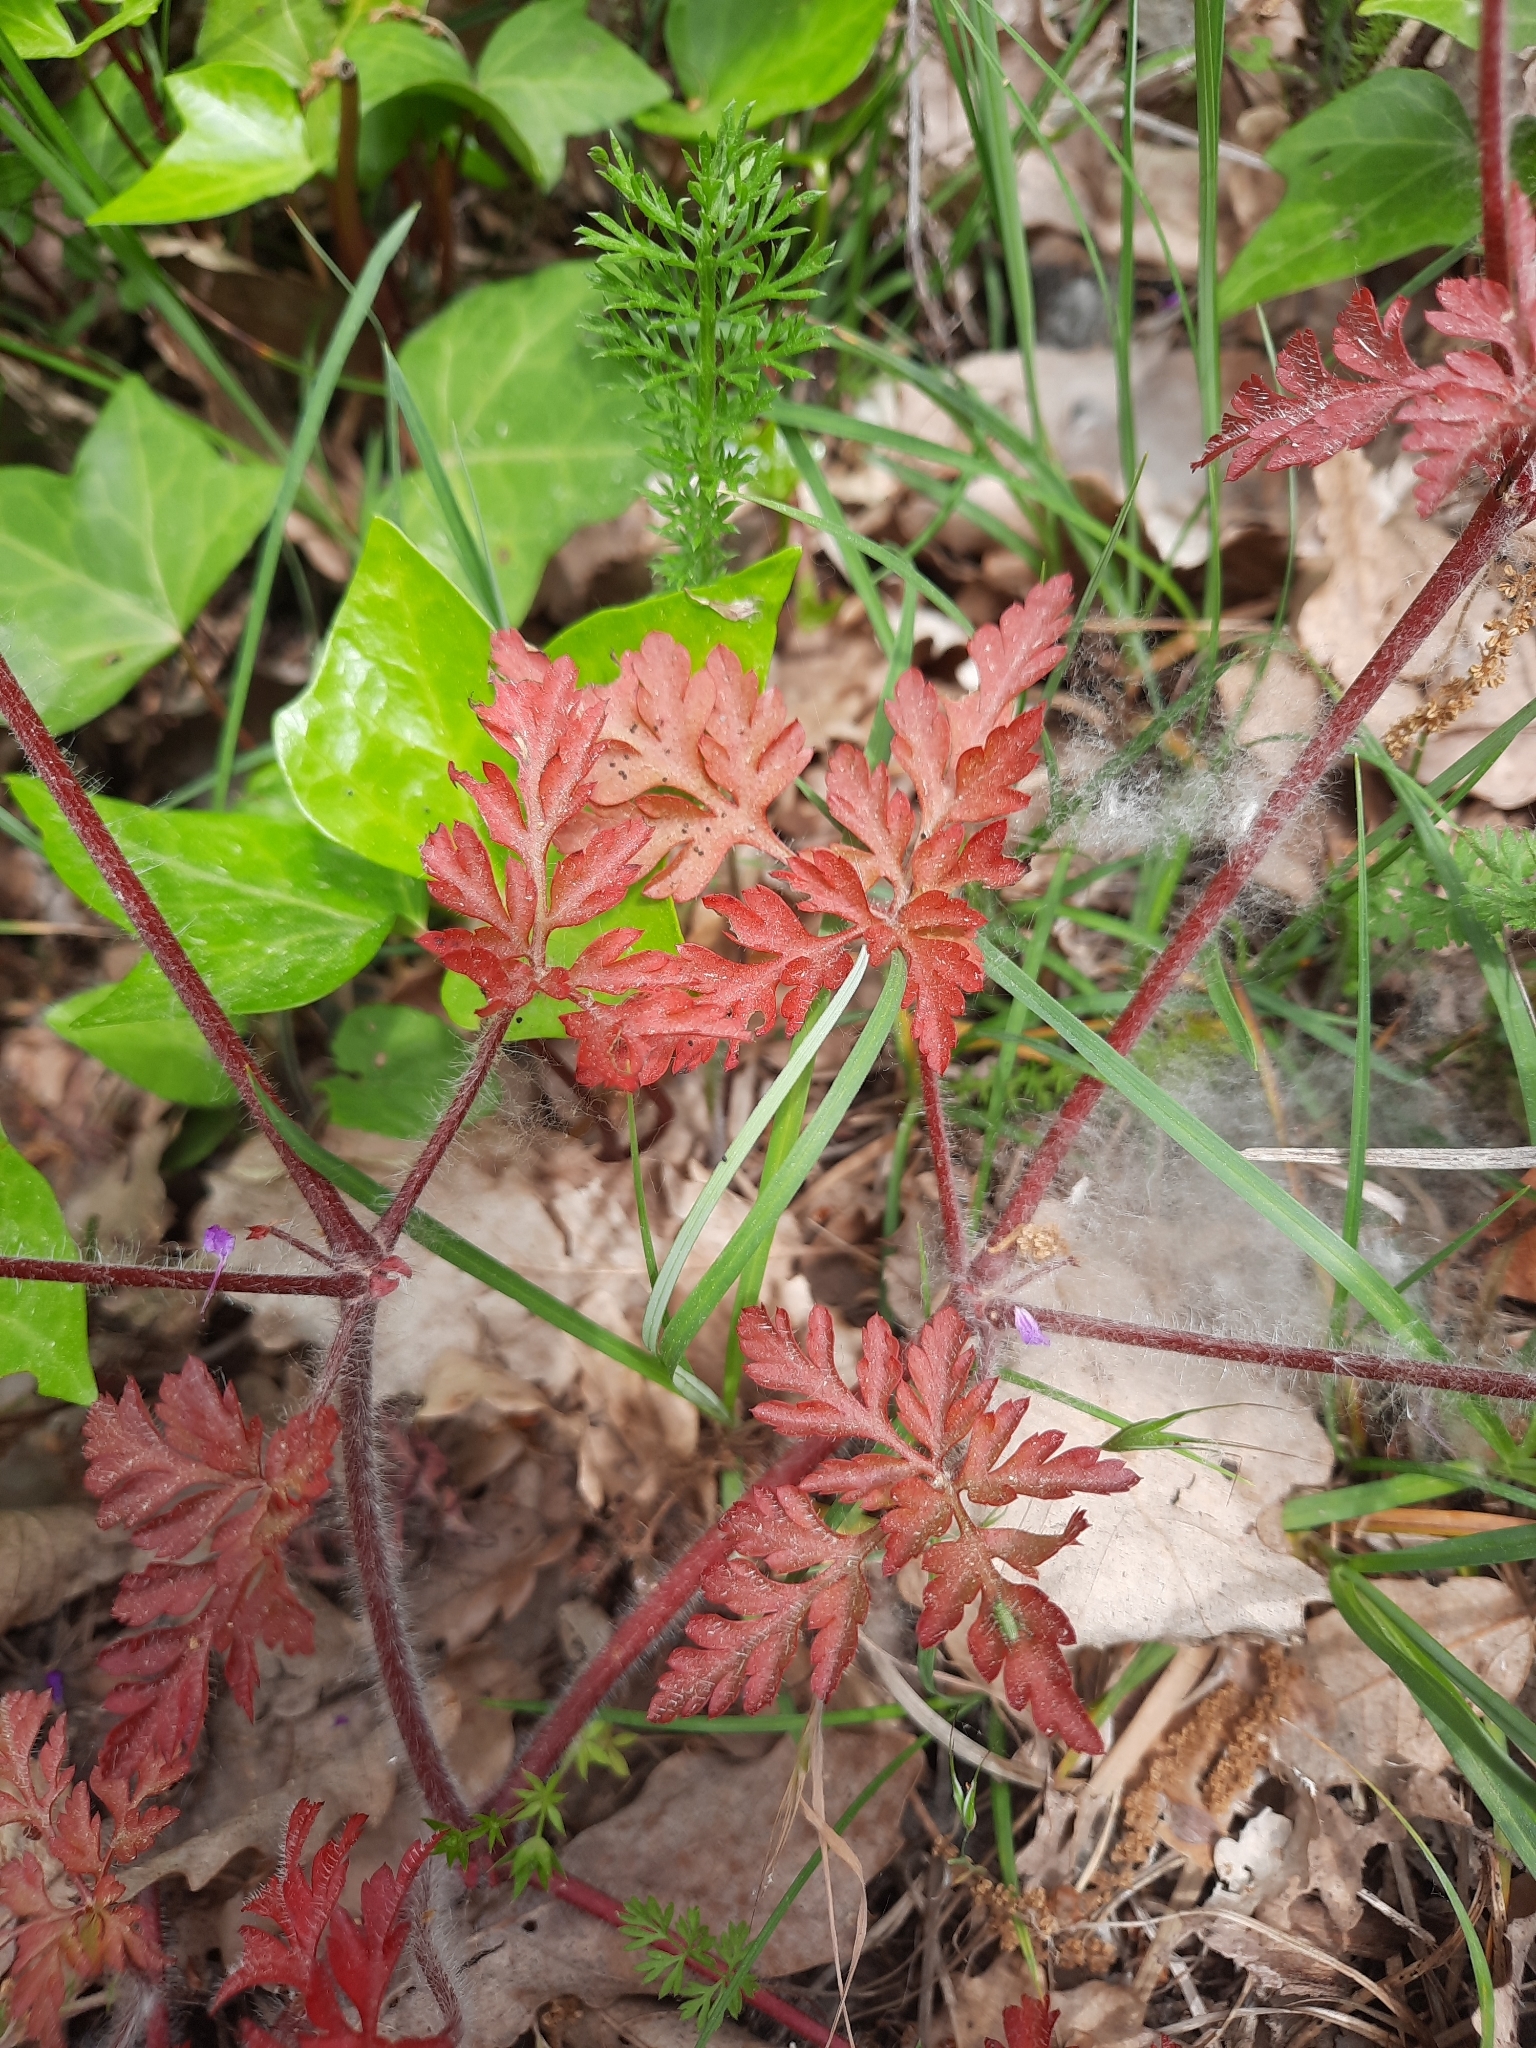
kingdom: Plantae
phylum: Tracheophyta
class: Magnoliopsida
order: Geraniales
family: Geraniaceae
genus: Geranium
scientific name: Geranium robertianum
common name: Herb-robert
